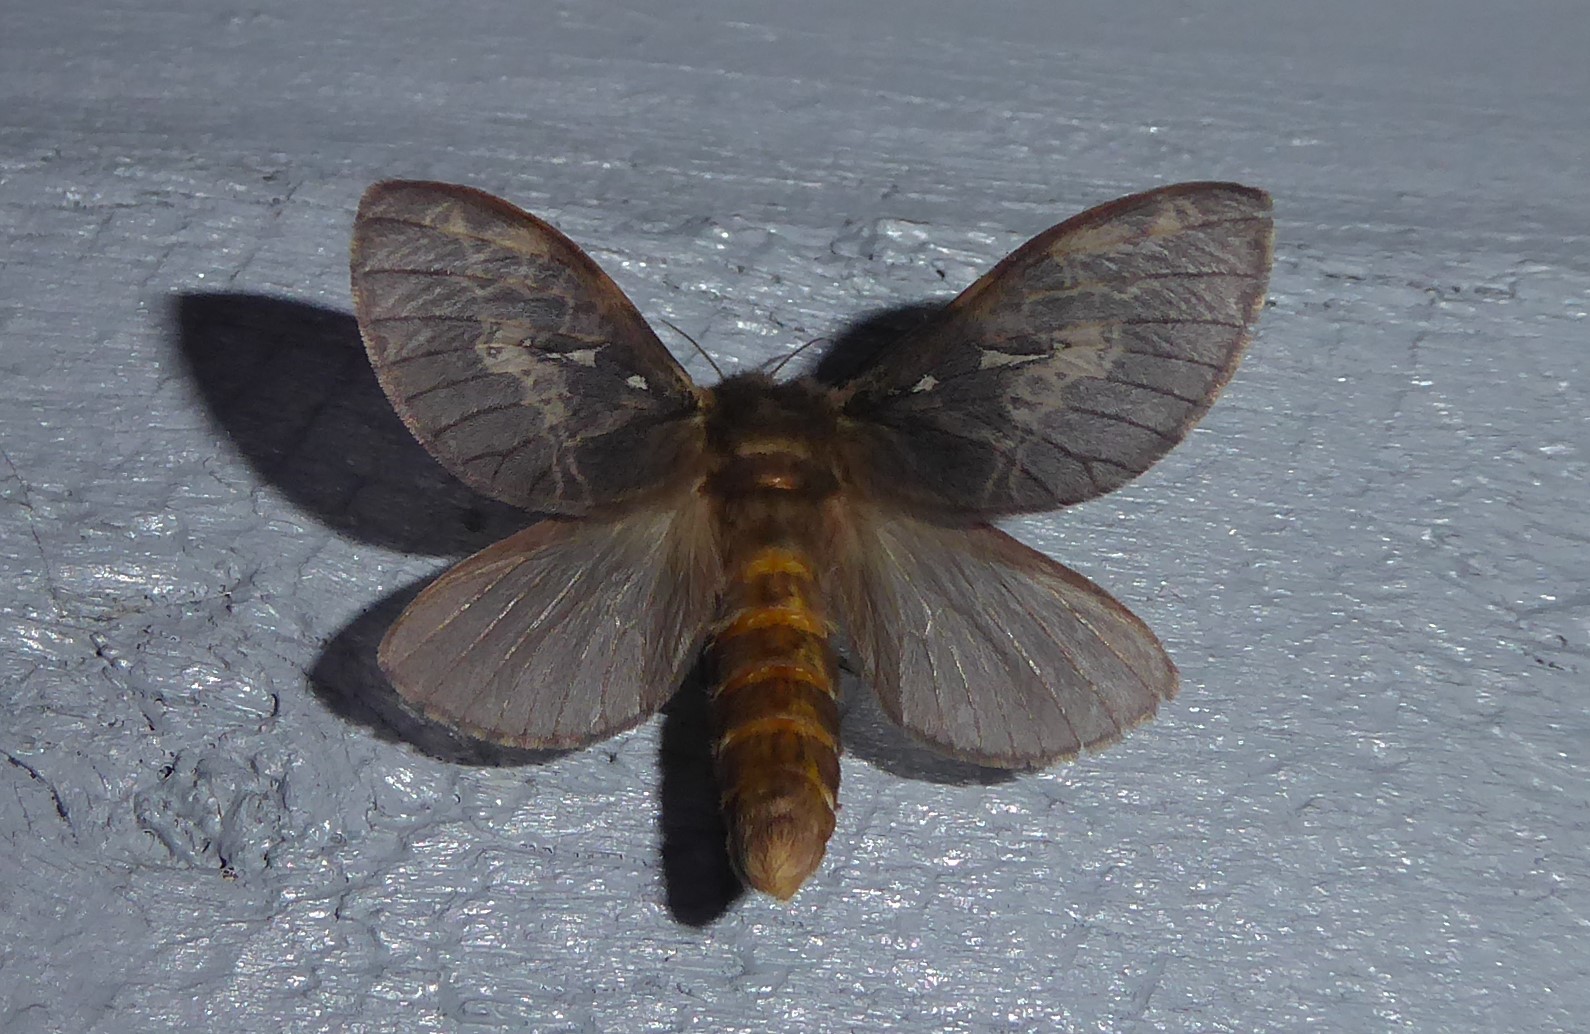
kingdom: Animalia
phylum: Arthropoda
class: Insecta
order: Lepidoptera
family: Hepialidae
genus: Wiseana
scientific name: Wiseana cervinata
